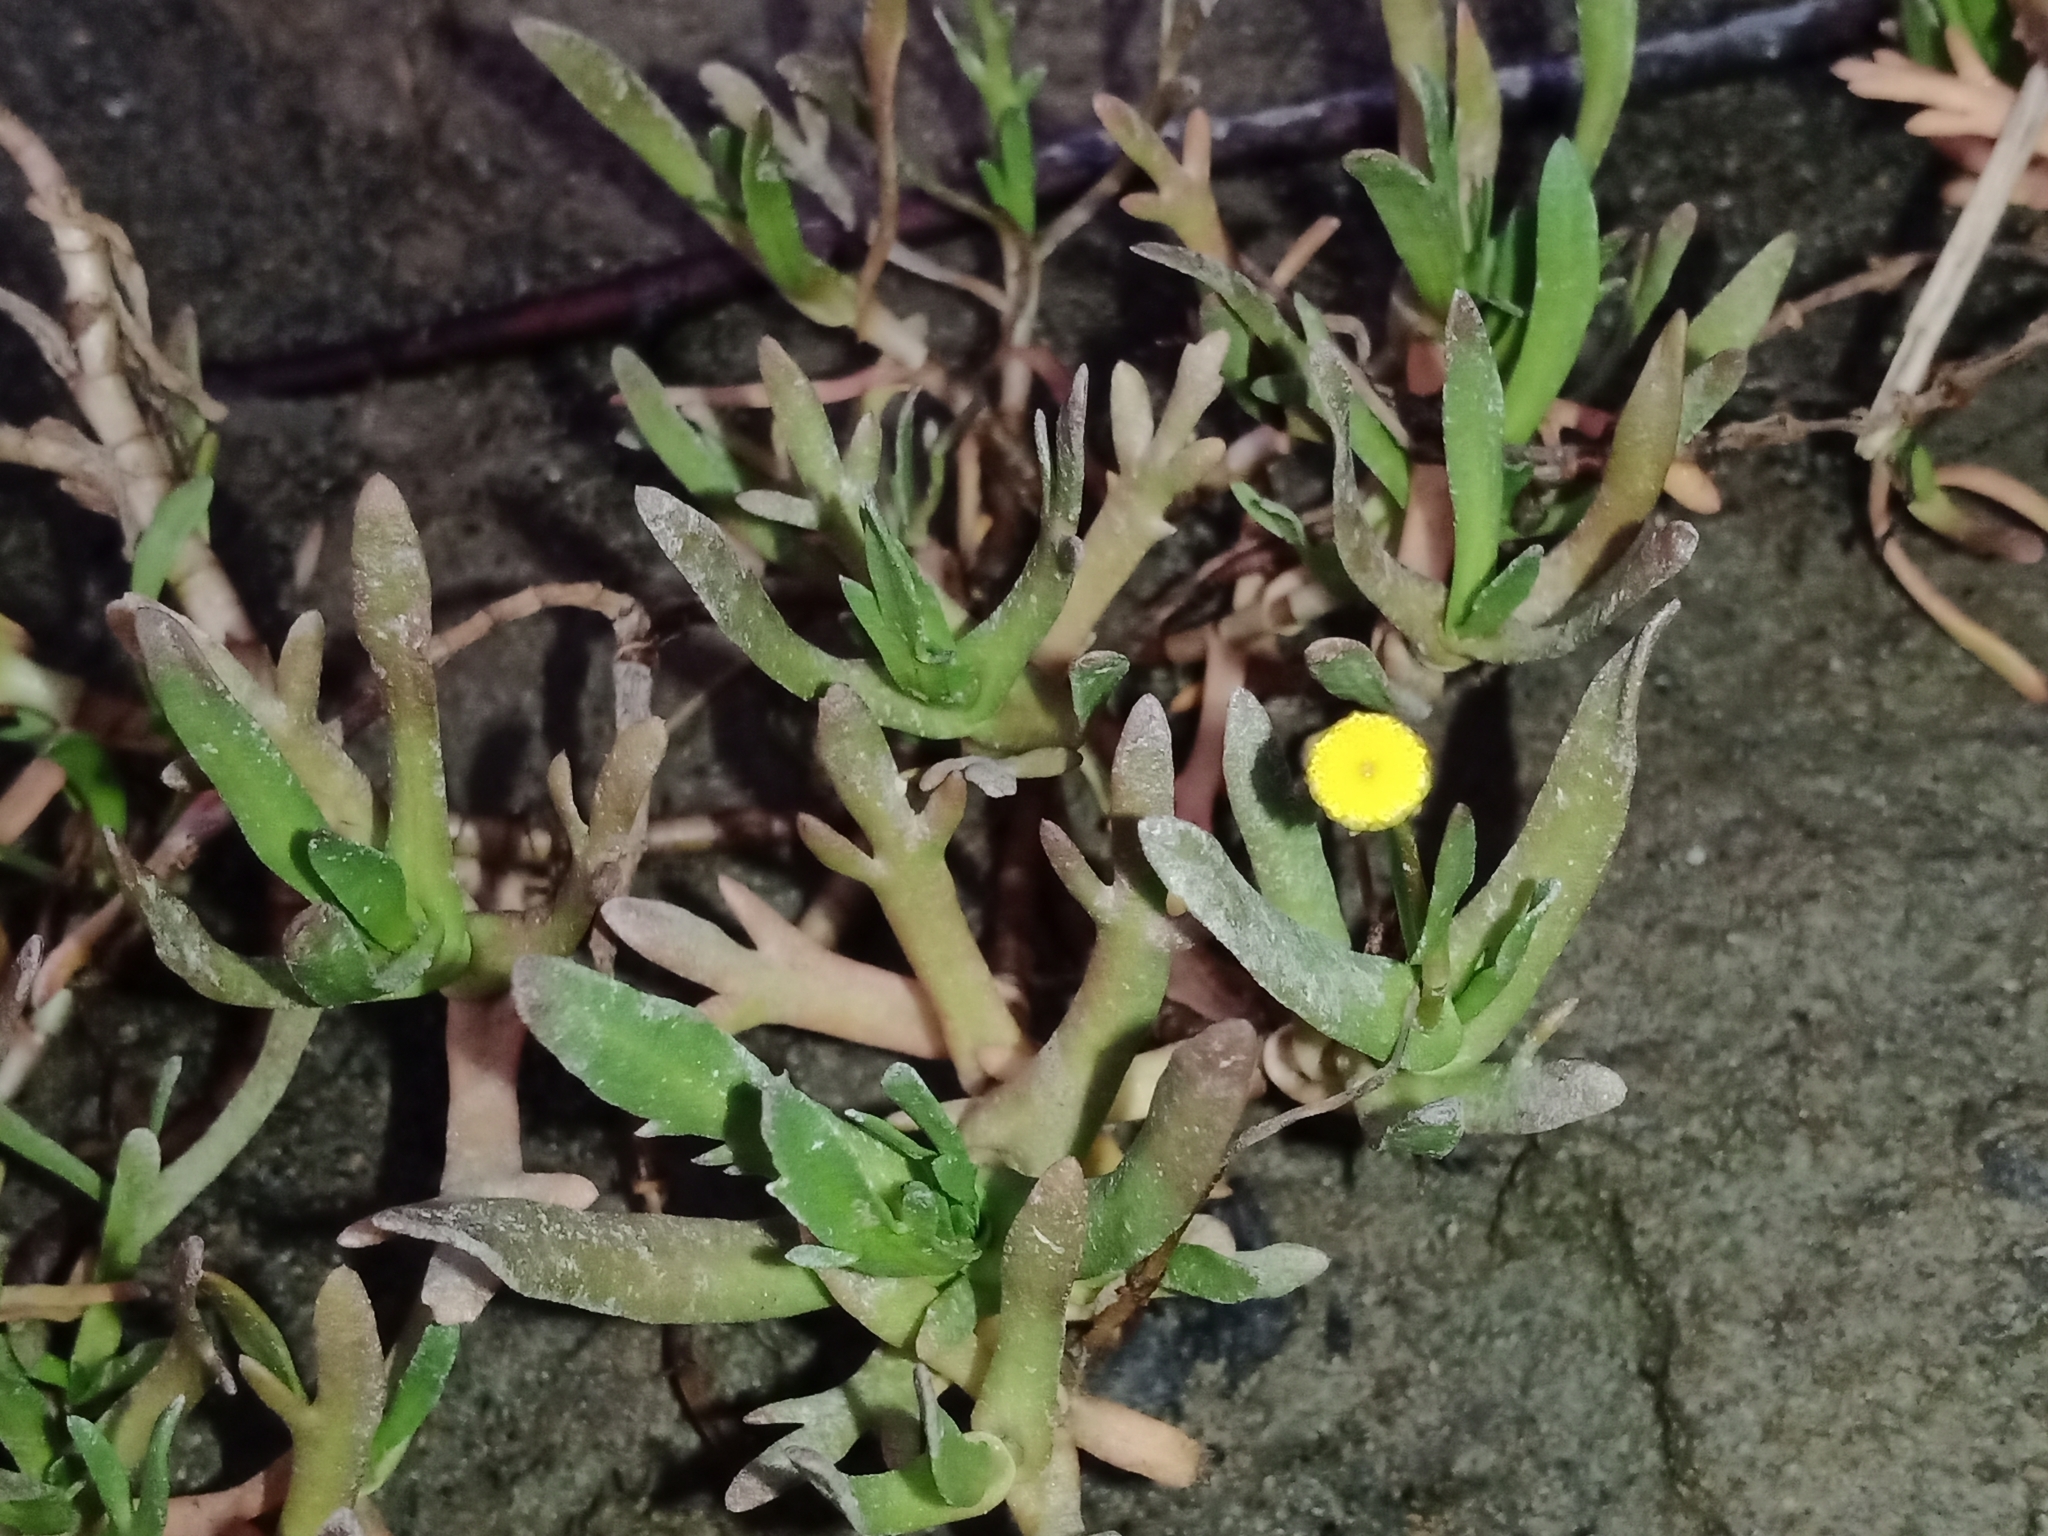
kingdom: Plantae
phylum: Tracheophyta
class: Magnoliopsida
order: Asterales
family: Asteraceae
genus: Cotula
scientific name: Cotula coronopifolia
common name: Buttonweed
